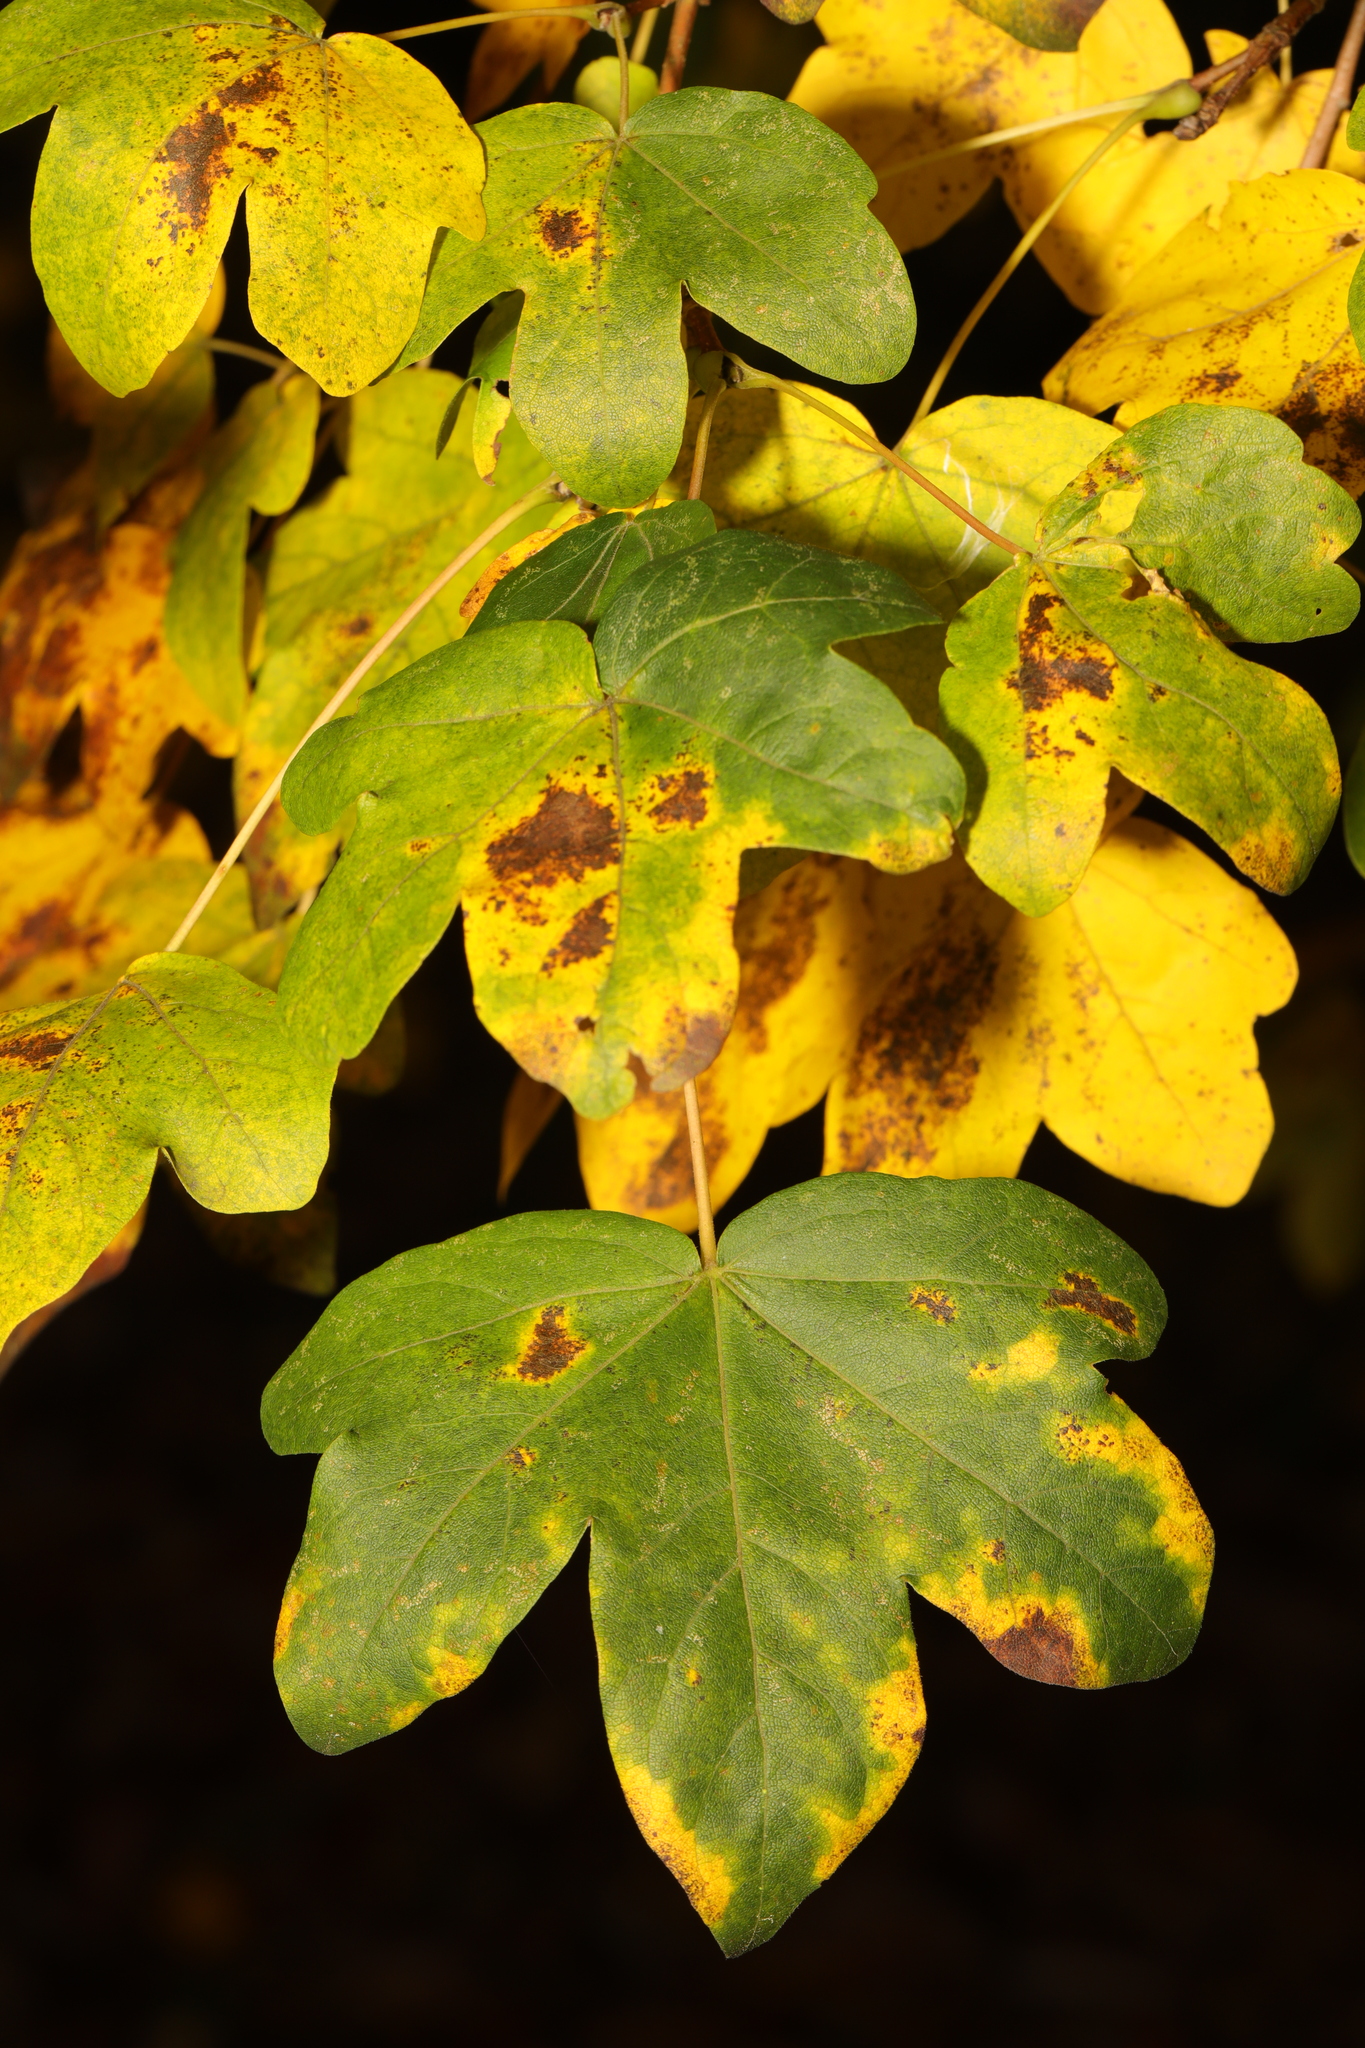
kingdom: Plantae
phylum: Tracheophyta
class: Magnoliopsida
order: Sapindales
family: Sapindaceae
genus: Acer
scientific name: Acer campestre
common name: Field maple
